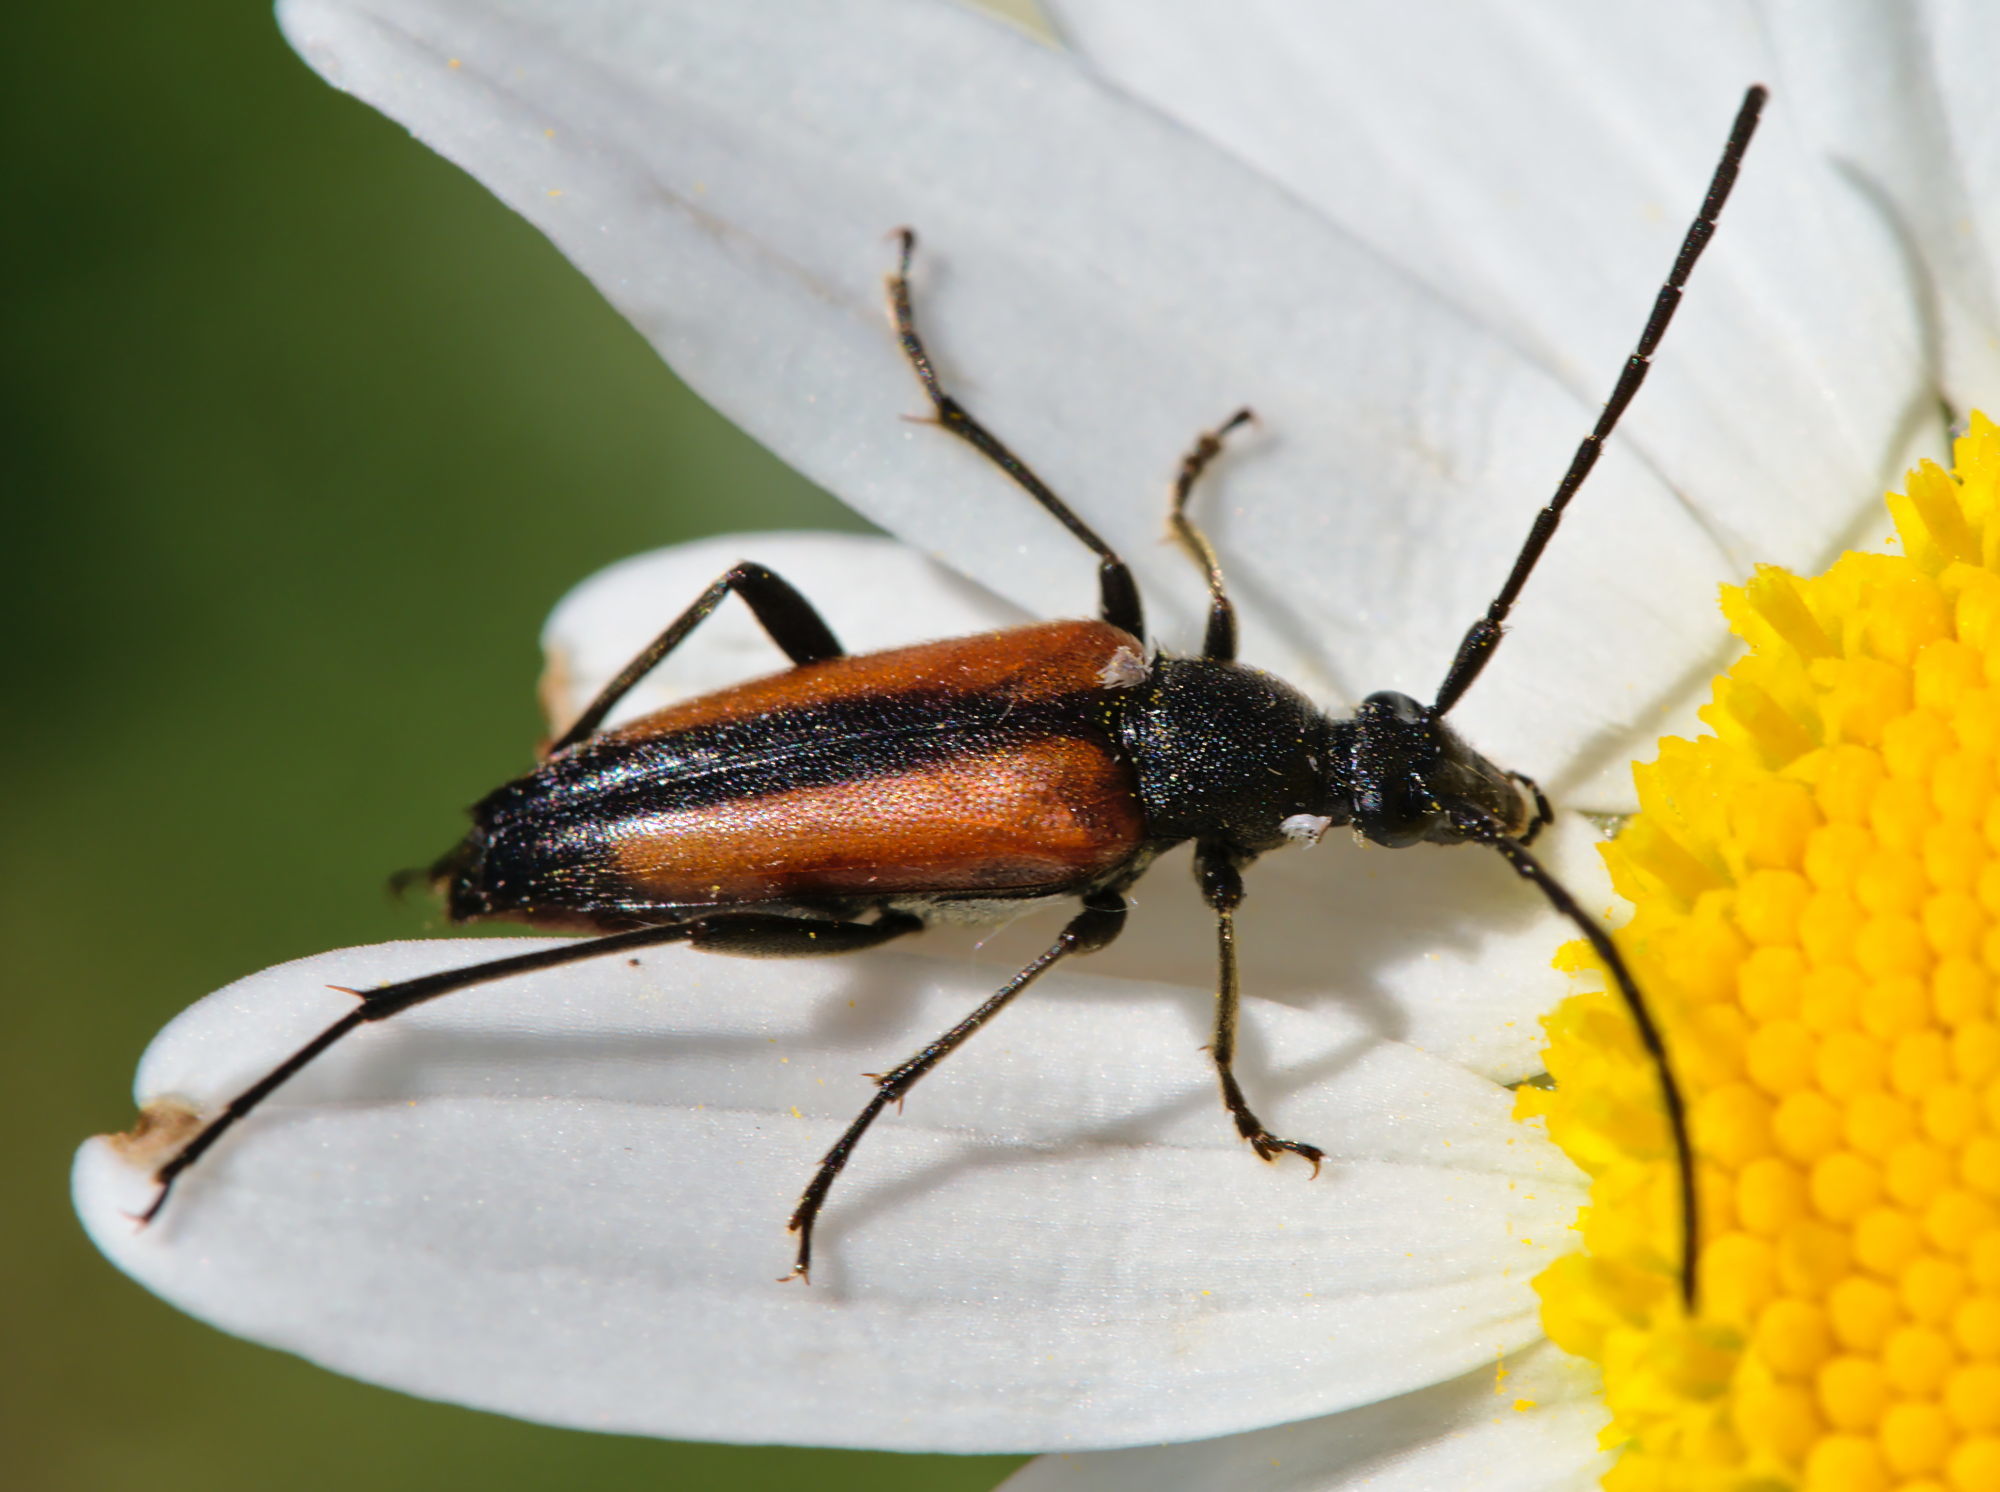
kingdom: Animalia
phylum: Arthropoda
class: Insecta
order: Coleoptera
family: Cerambycidae
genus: Stenurella
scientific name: Stenurella melanura
